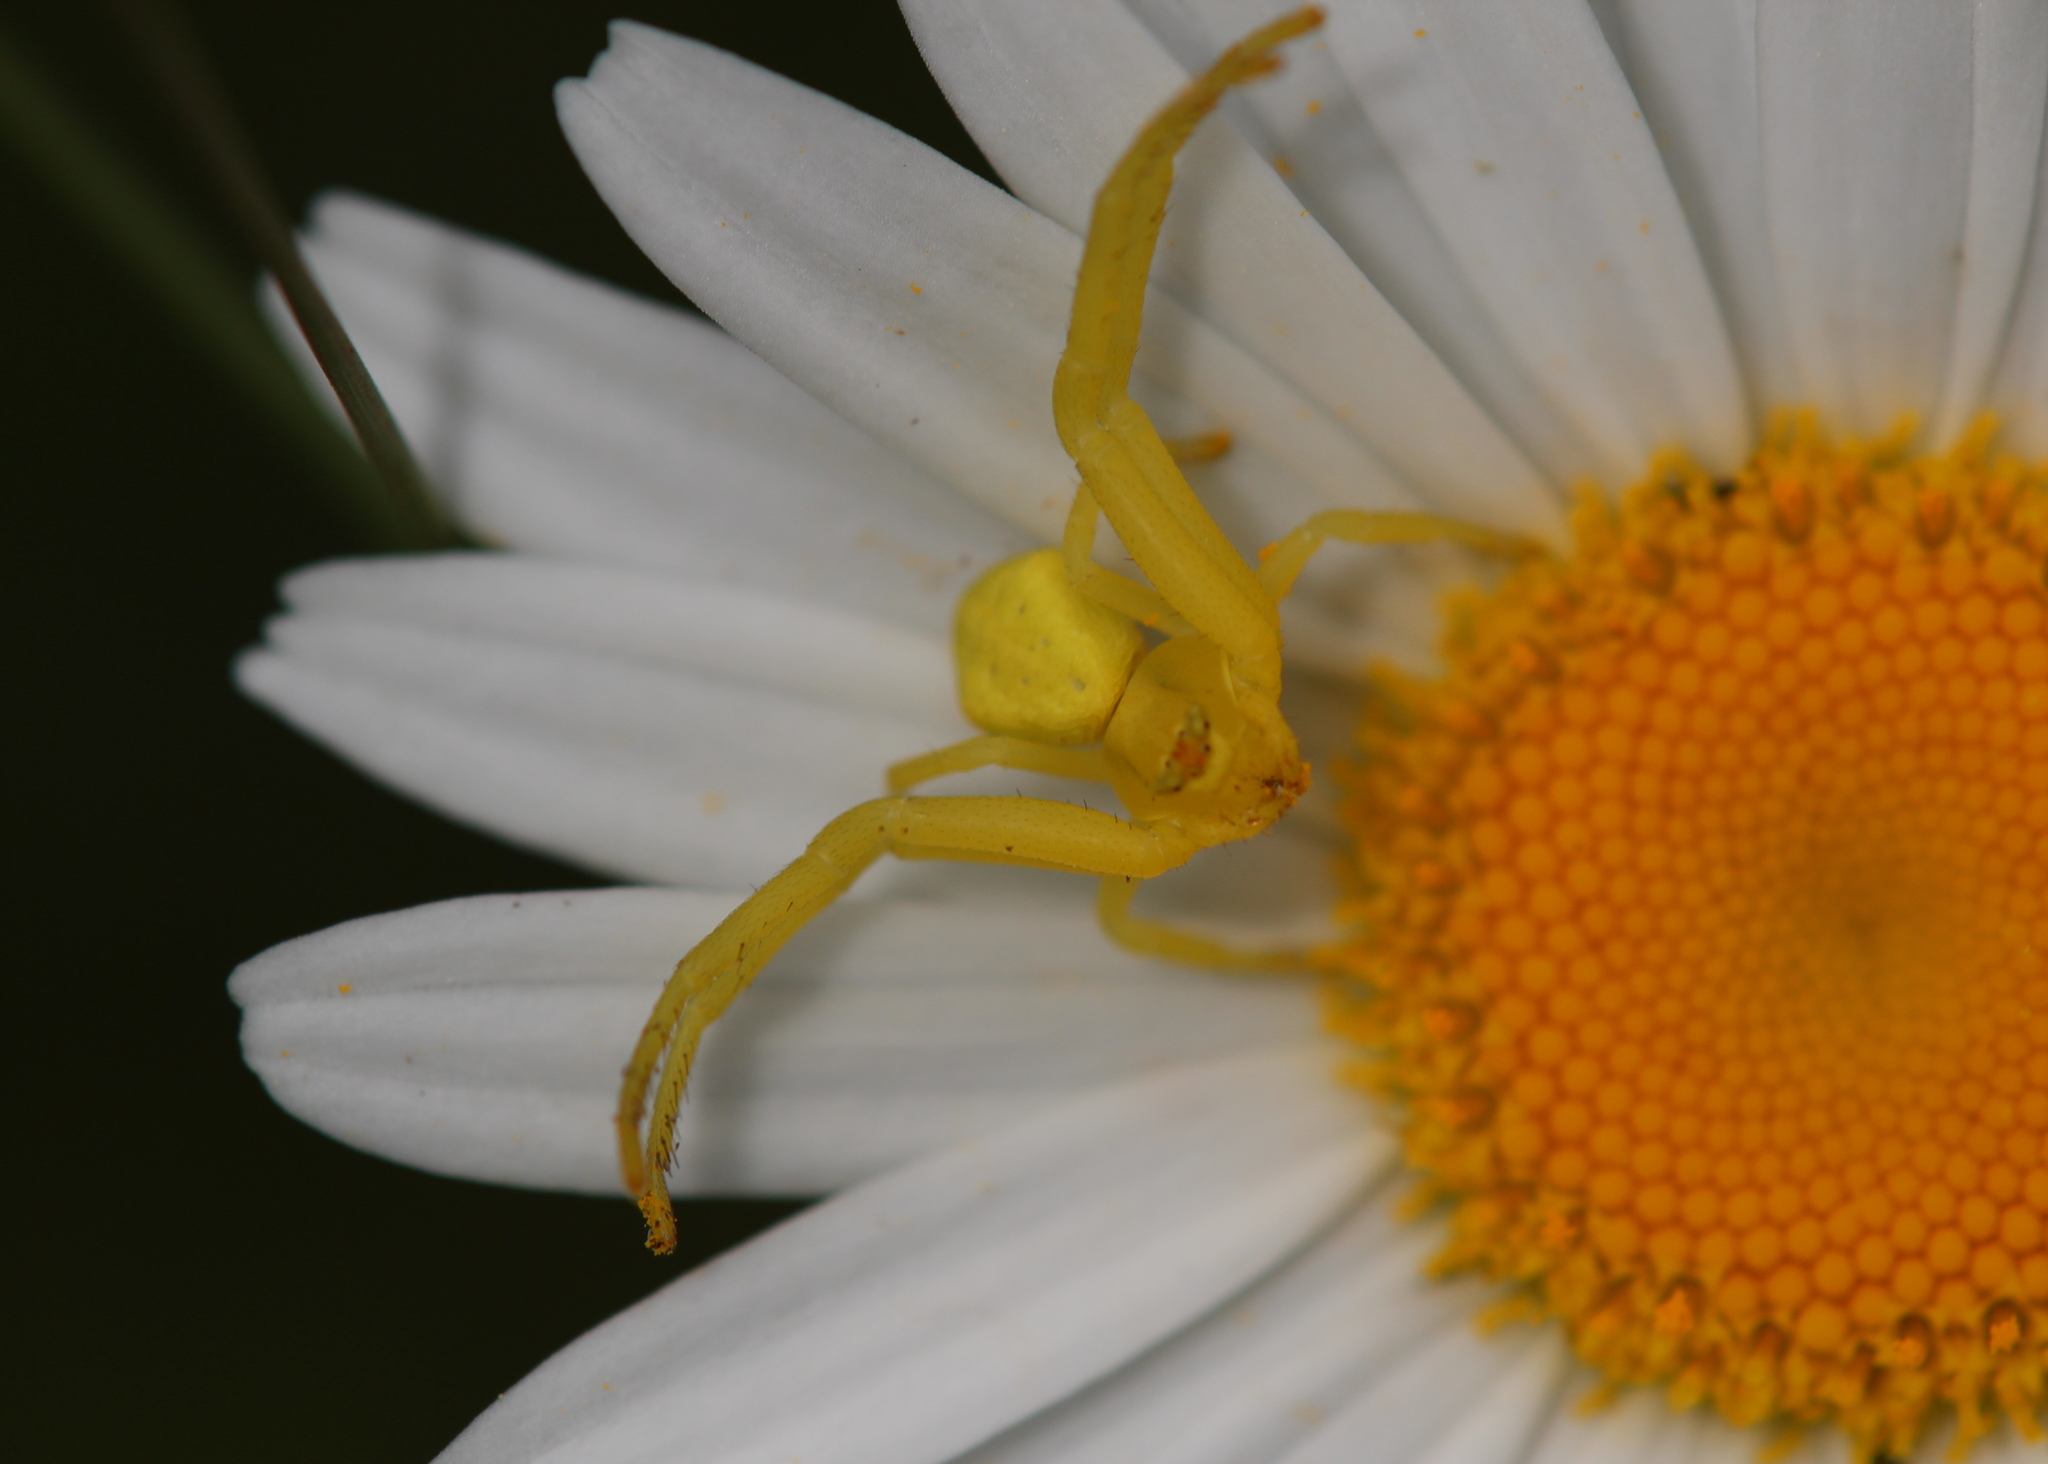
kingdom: Animalia
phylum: Arthropoda
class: Arachnida
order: Araneae
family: Thomisidae
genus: Misumena
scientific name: Misumena vatia
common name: Goldenrod crab spider
